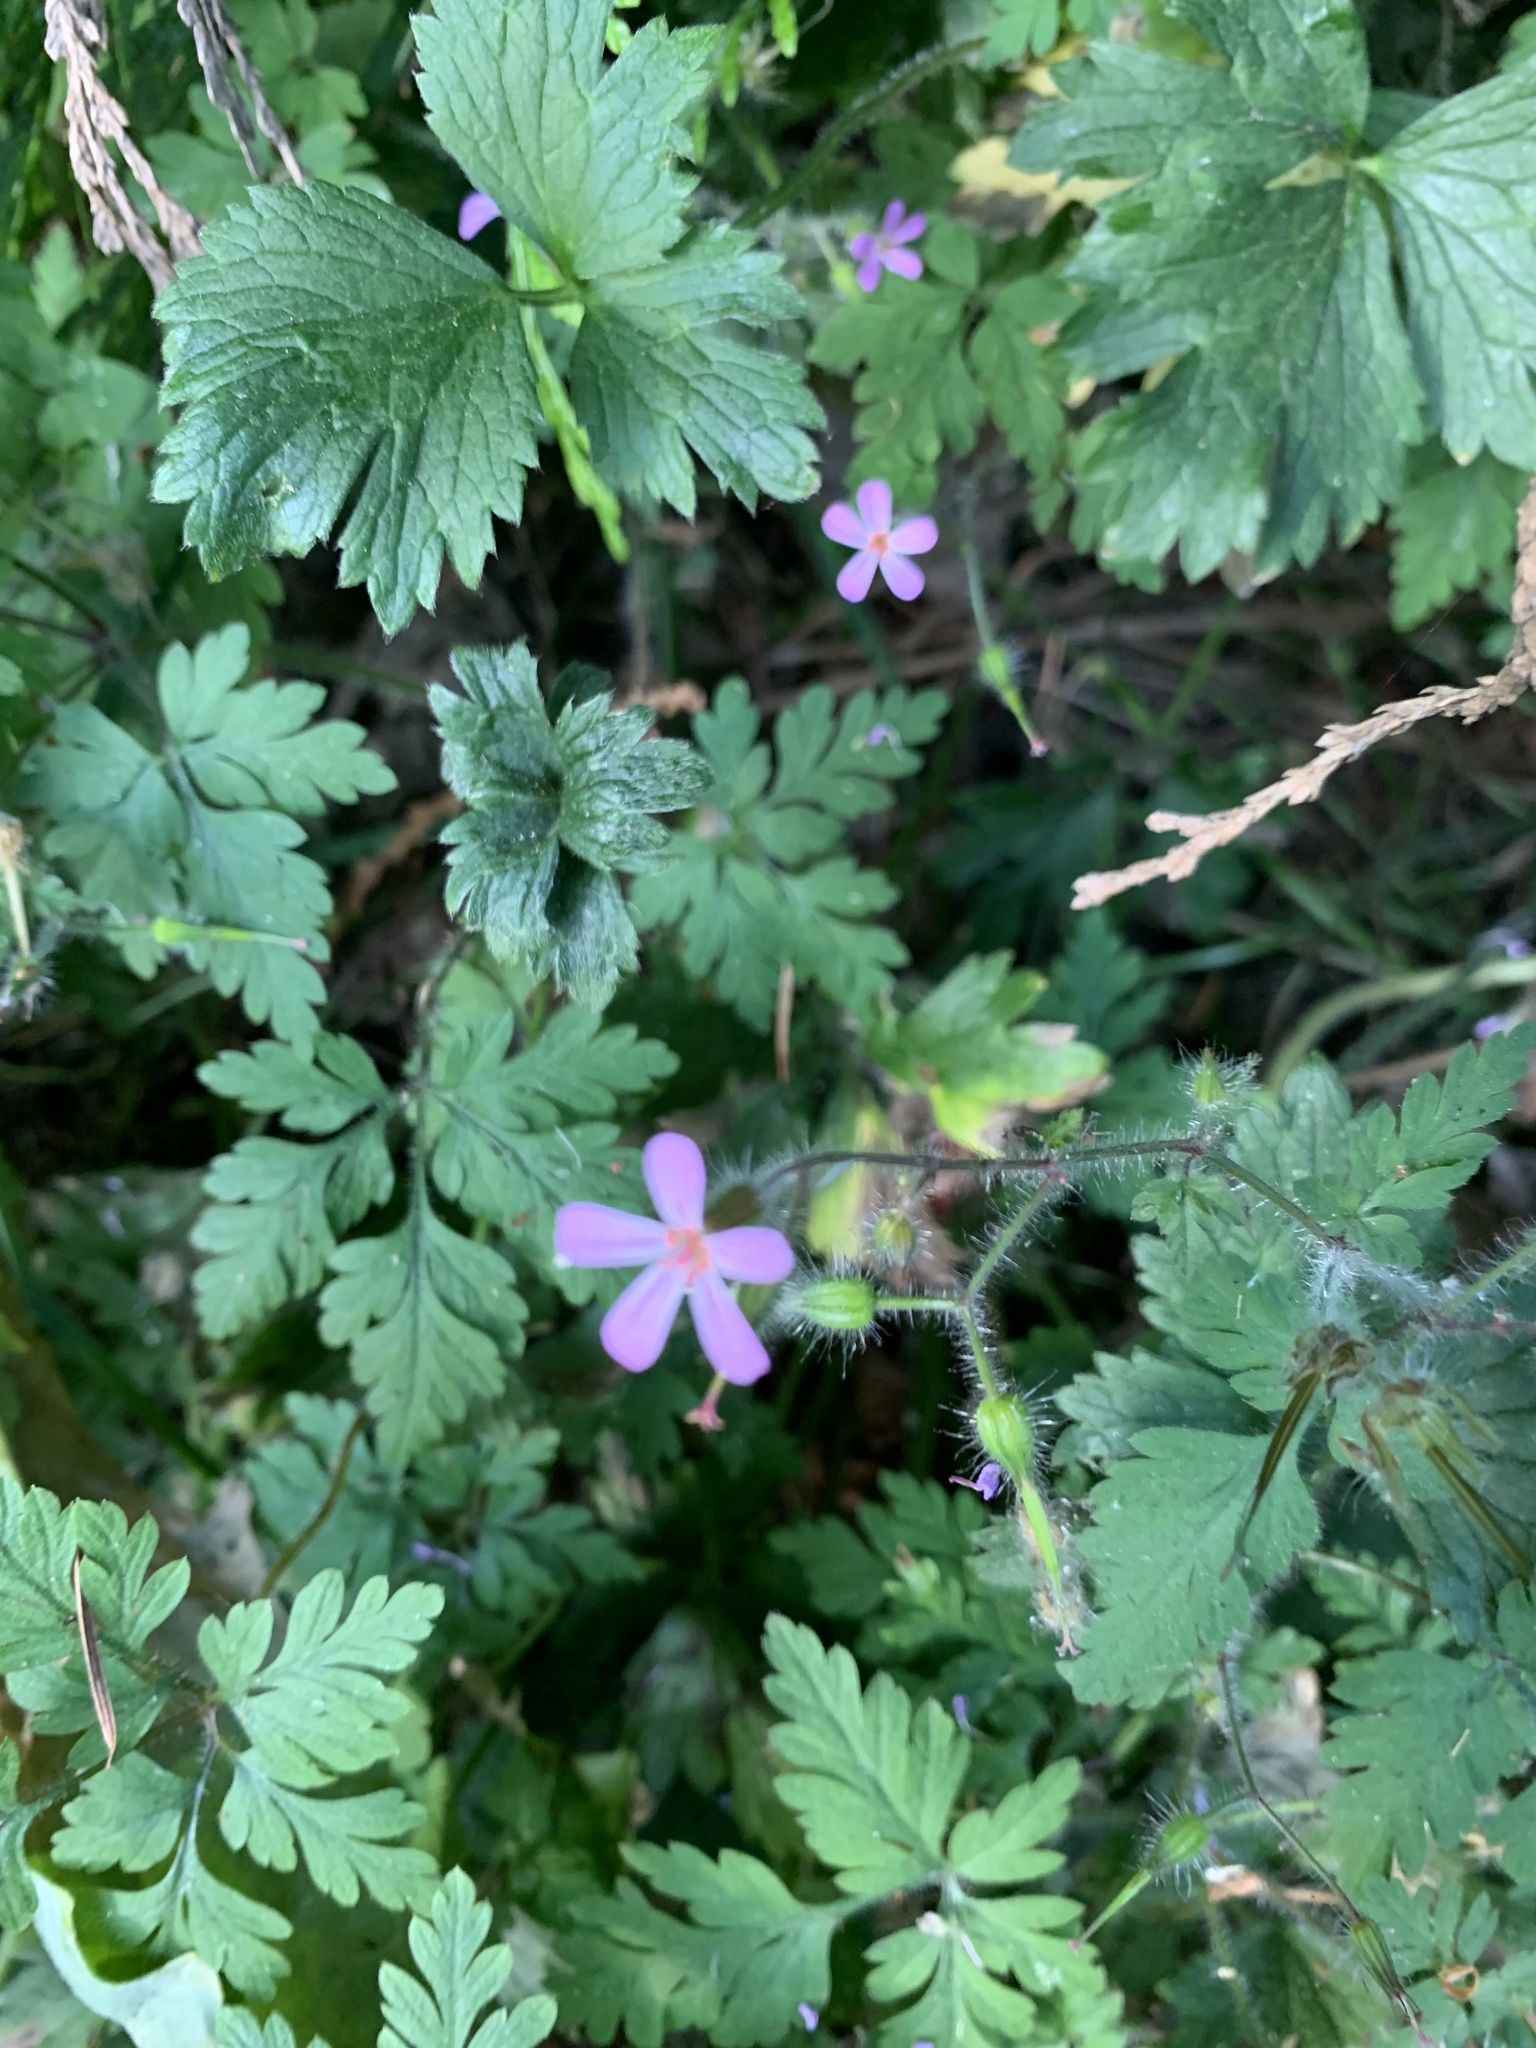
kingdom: Plantae
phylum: Tracheophyta
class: Magnoliopsida
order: Geraniales
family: Geraniaceae
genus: Geranium
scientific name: Geranium robertianum
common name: Herb-robert
